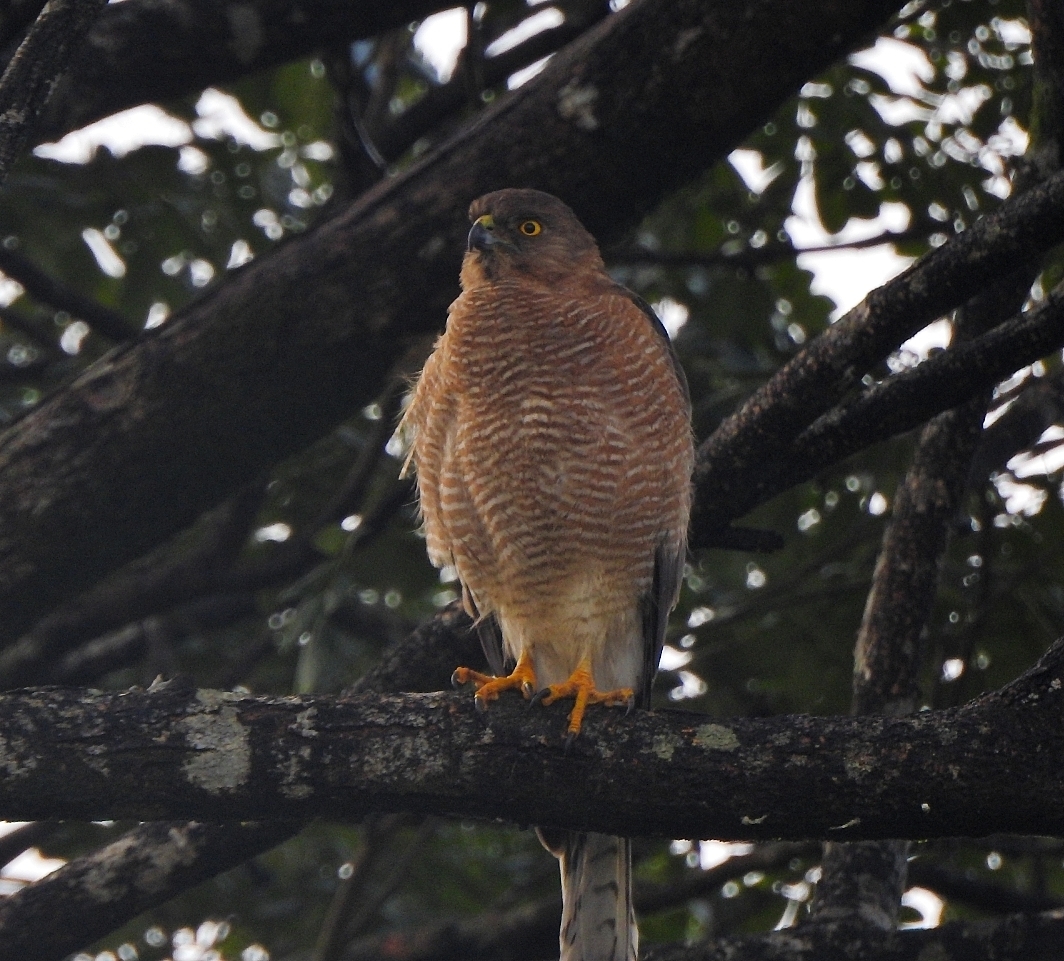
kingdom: Animalia
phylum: Chordata
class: Aves
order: Accipitriformes
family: Accipitridae
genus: Accipiter
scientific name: Accipiter badius
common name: Shikra
